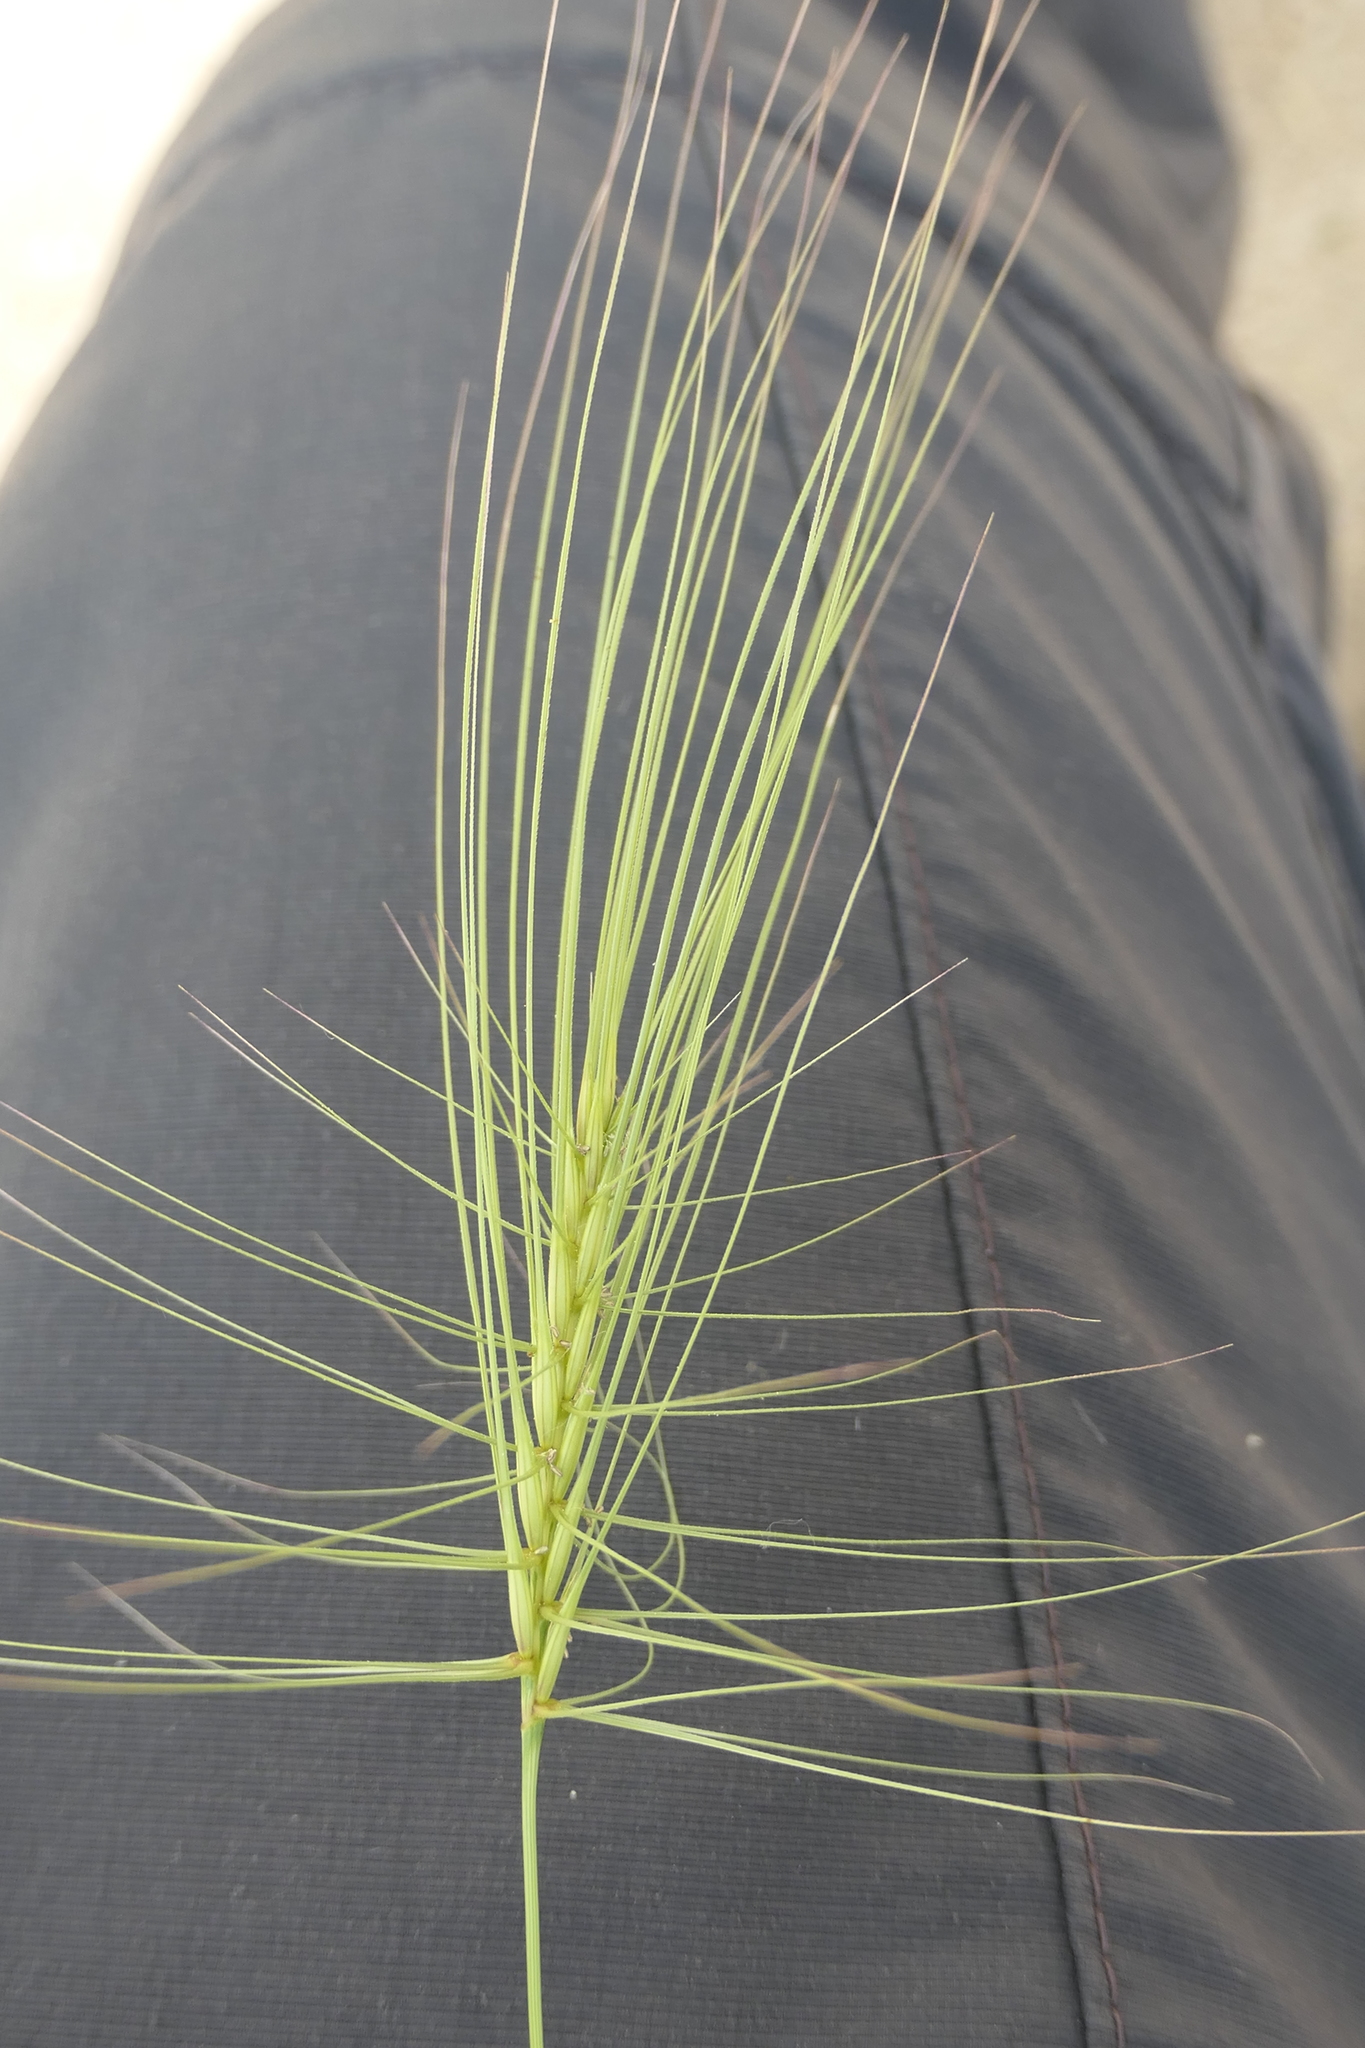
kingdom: Plantae
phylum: Tracheophyta
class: Liliopsida
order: Poales
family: Poaceae
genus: Taeniatherum
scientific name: Taeniatherum caput-medusae
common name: Medusahead
